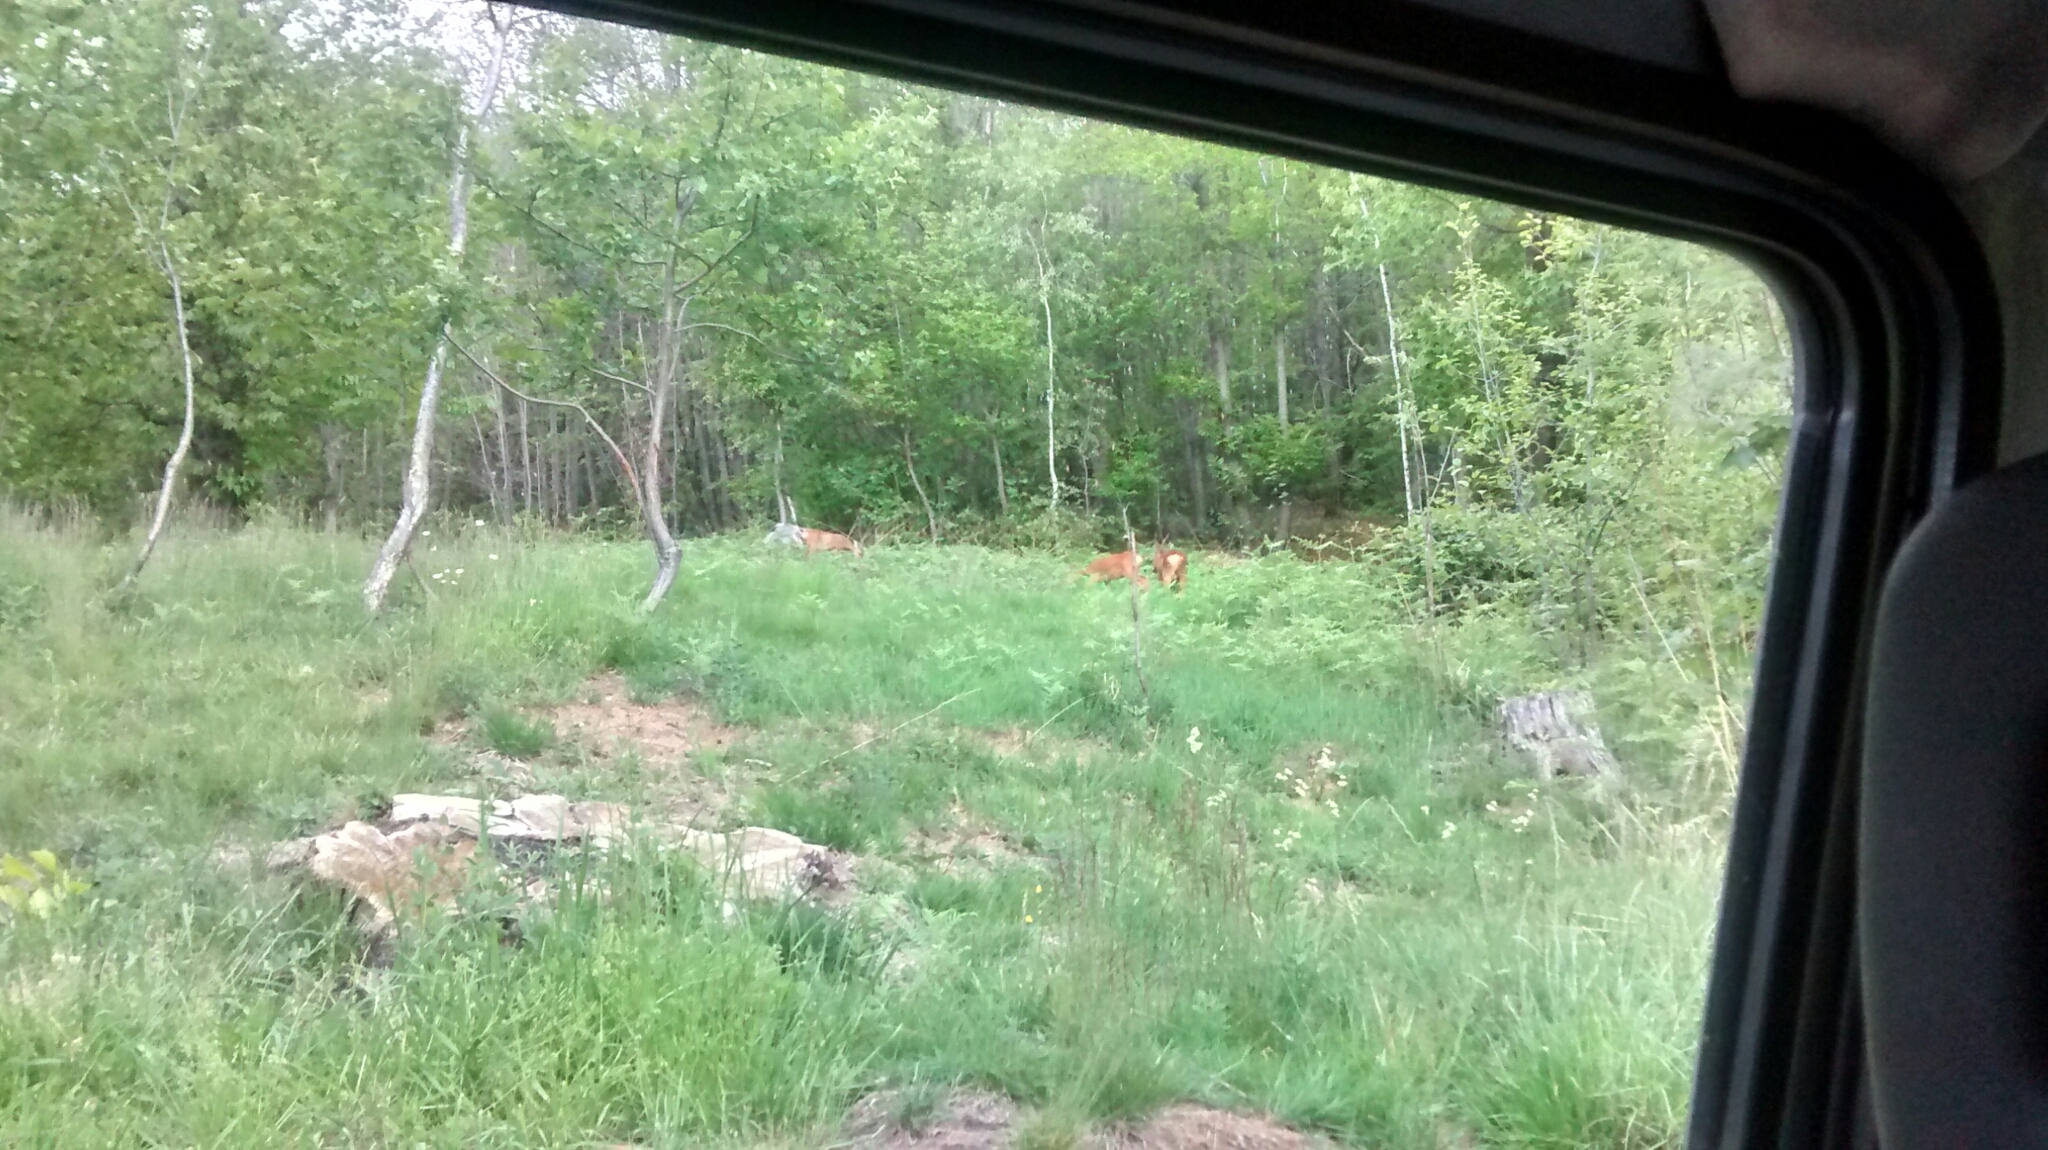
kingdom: Animalia
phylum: Chordata
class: Mammalia
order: Artiodactyla
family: Cervidae
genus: Capreolus
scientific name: Capreolus capreolus
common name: Western roe deer
